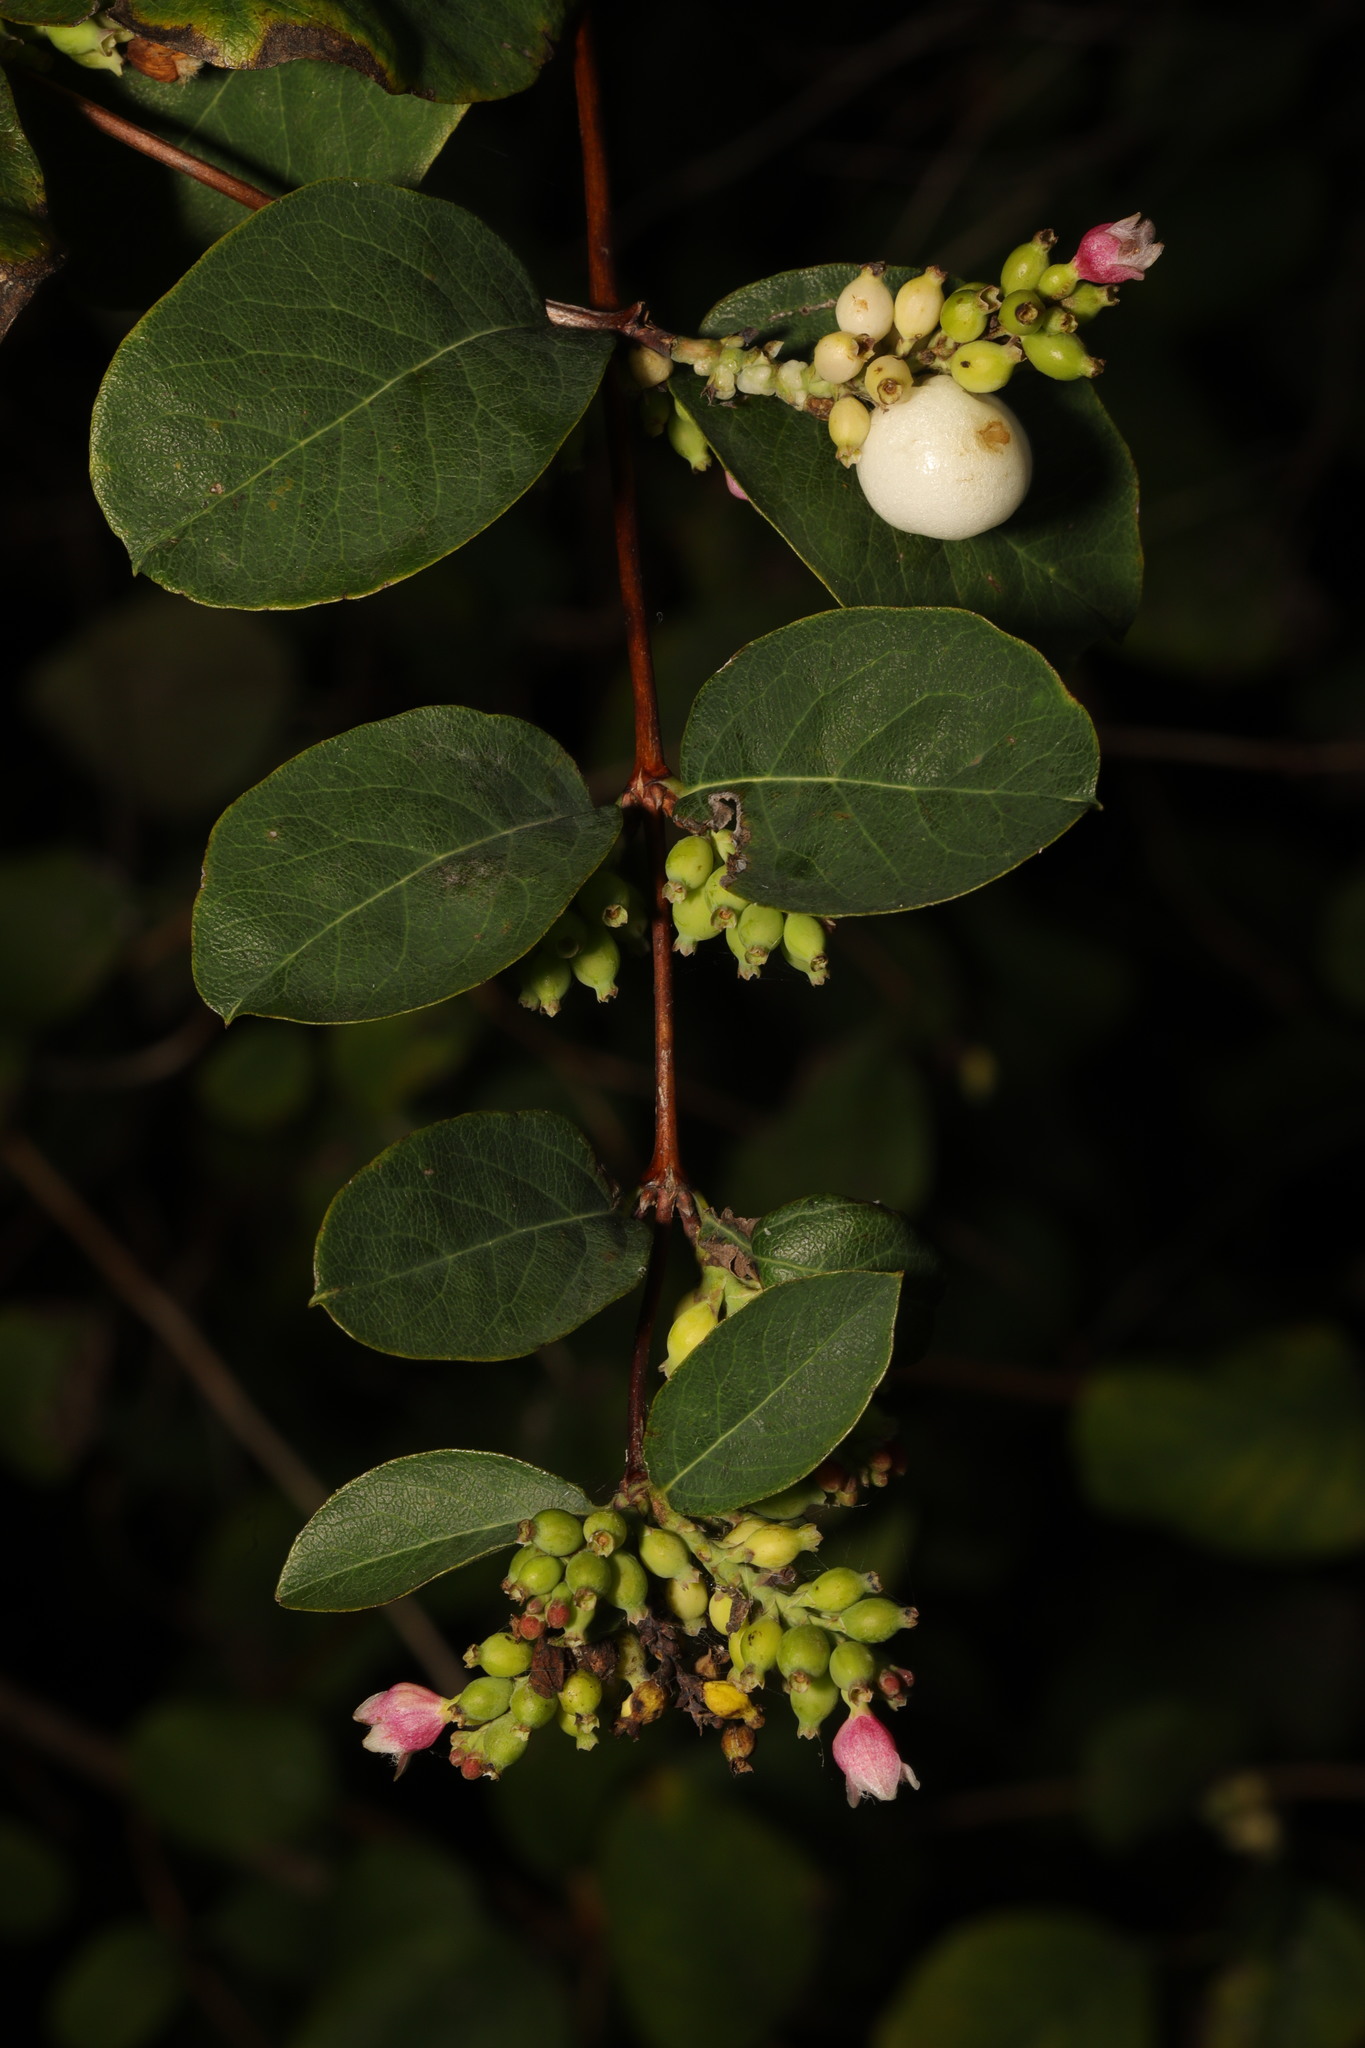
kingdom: Plantae
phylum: Tracheophyta
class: Magnoliopsida
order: Dipsacales
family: Caprifoliaceae
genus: Symphoricarpos
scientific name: Symphoricarpos albus
